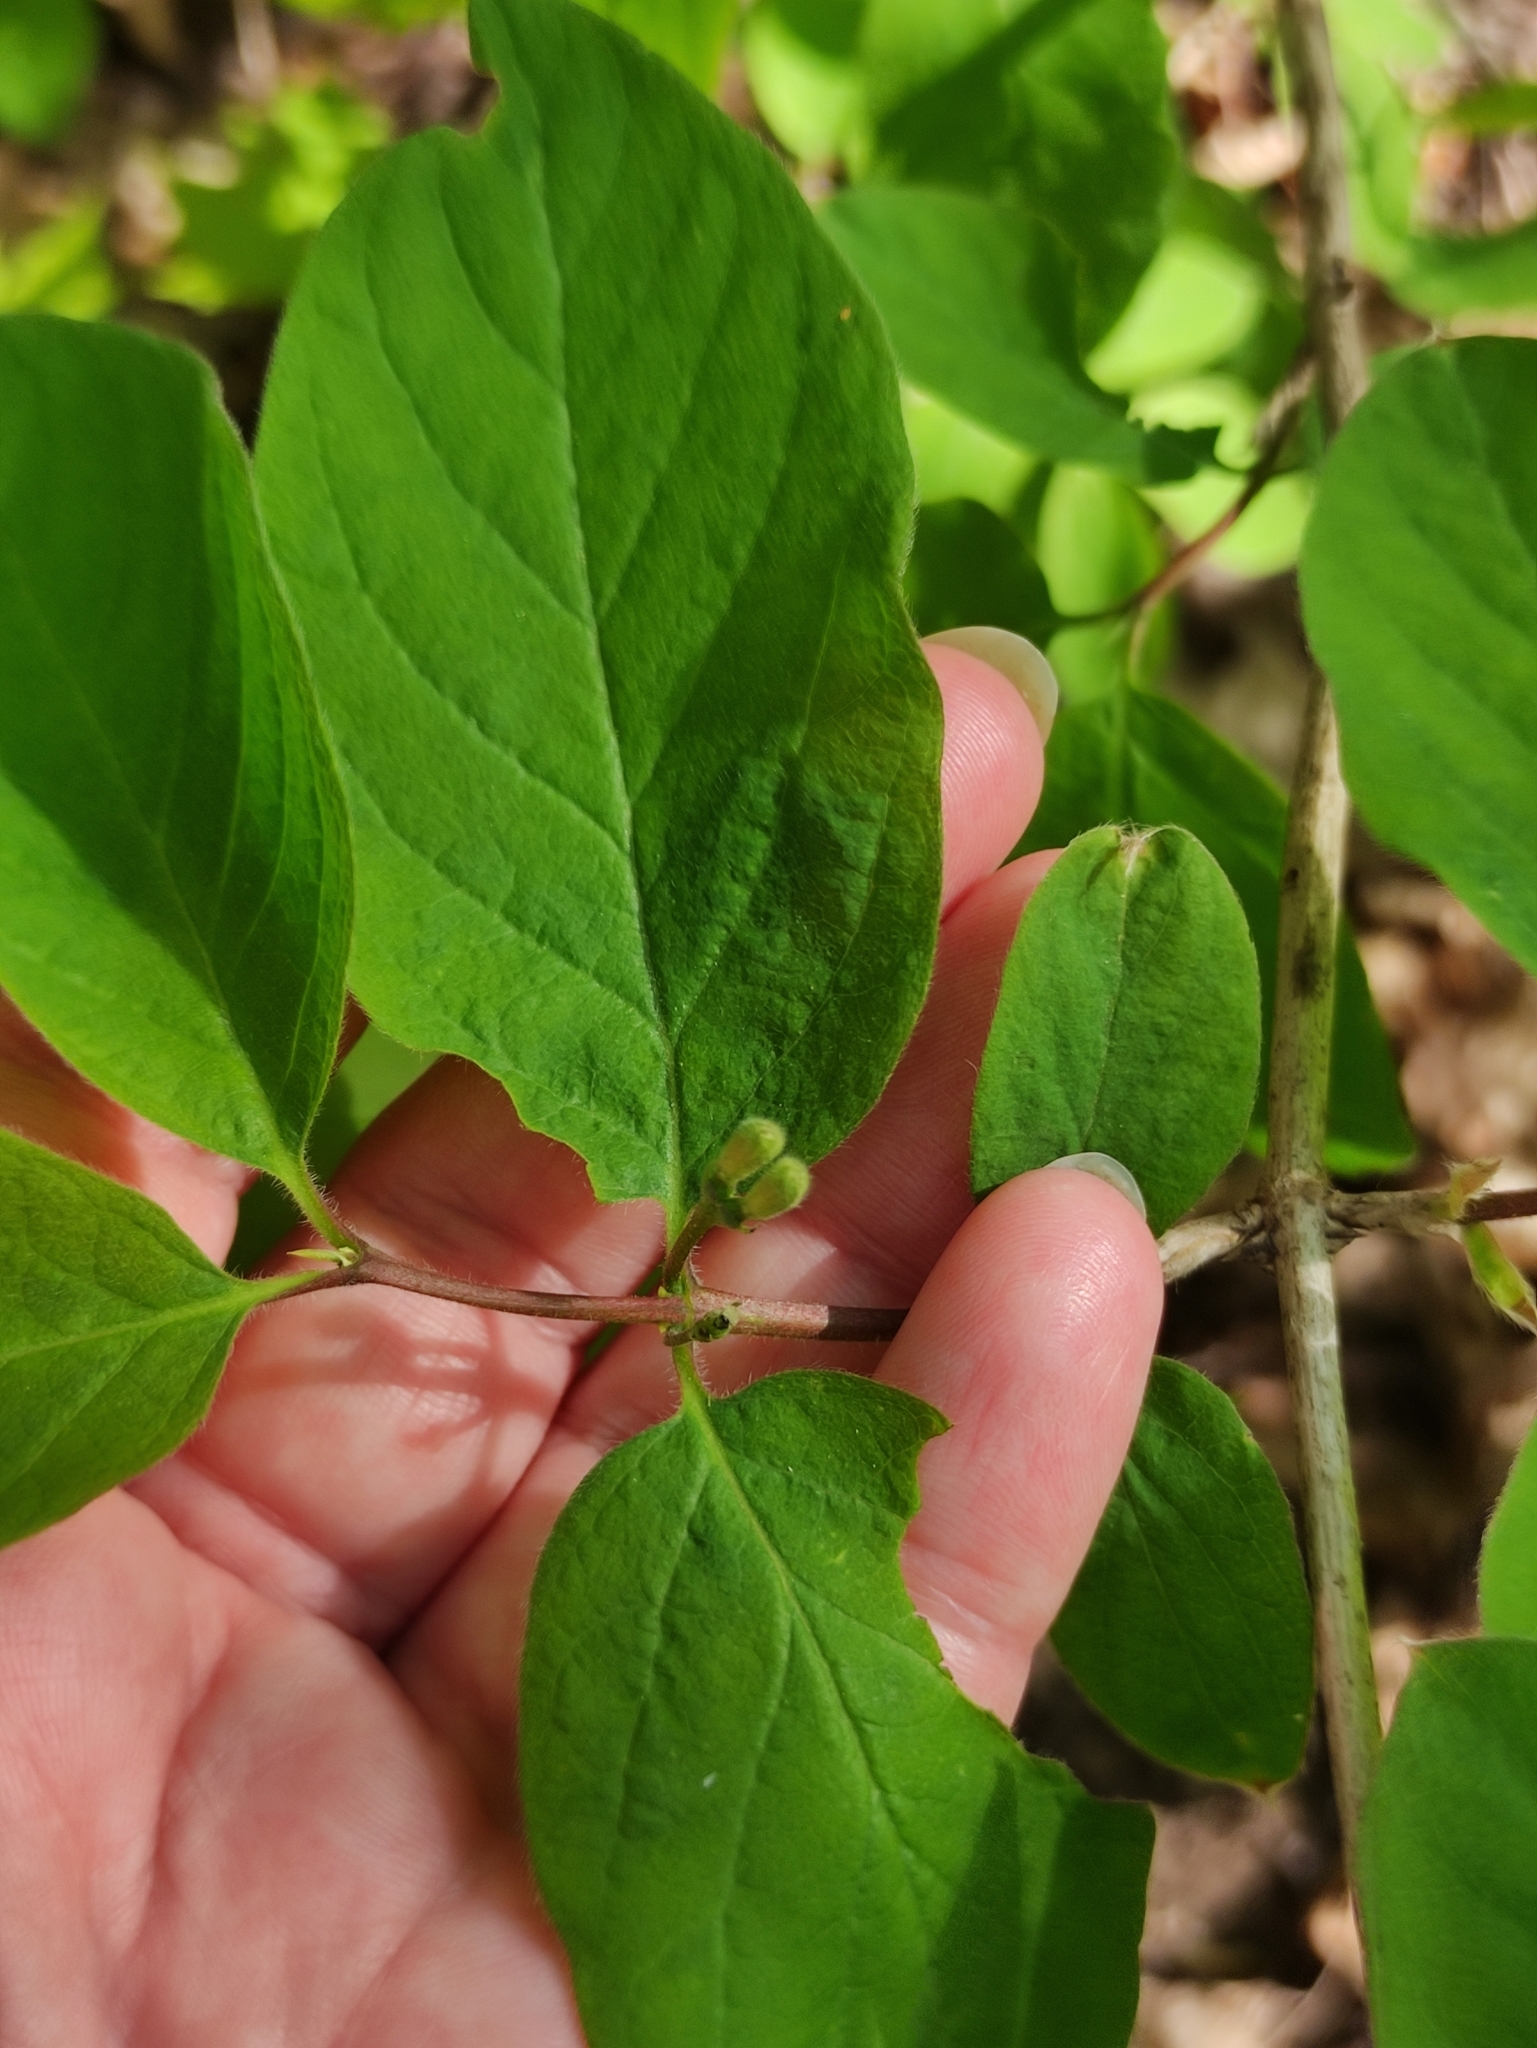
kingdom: Plantae
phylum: Tracheophyta
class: Magnoliopsida
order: Dipsacales
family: Caprifoliaceae
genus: Lonicera
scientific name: Lonicera xylosteum
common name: Fly honeysuckle
